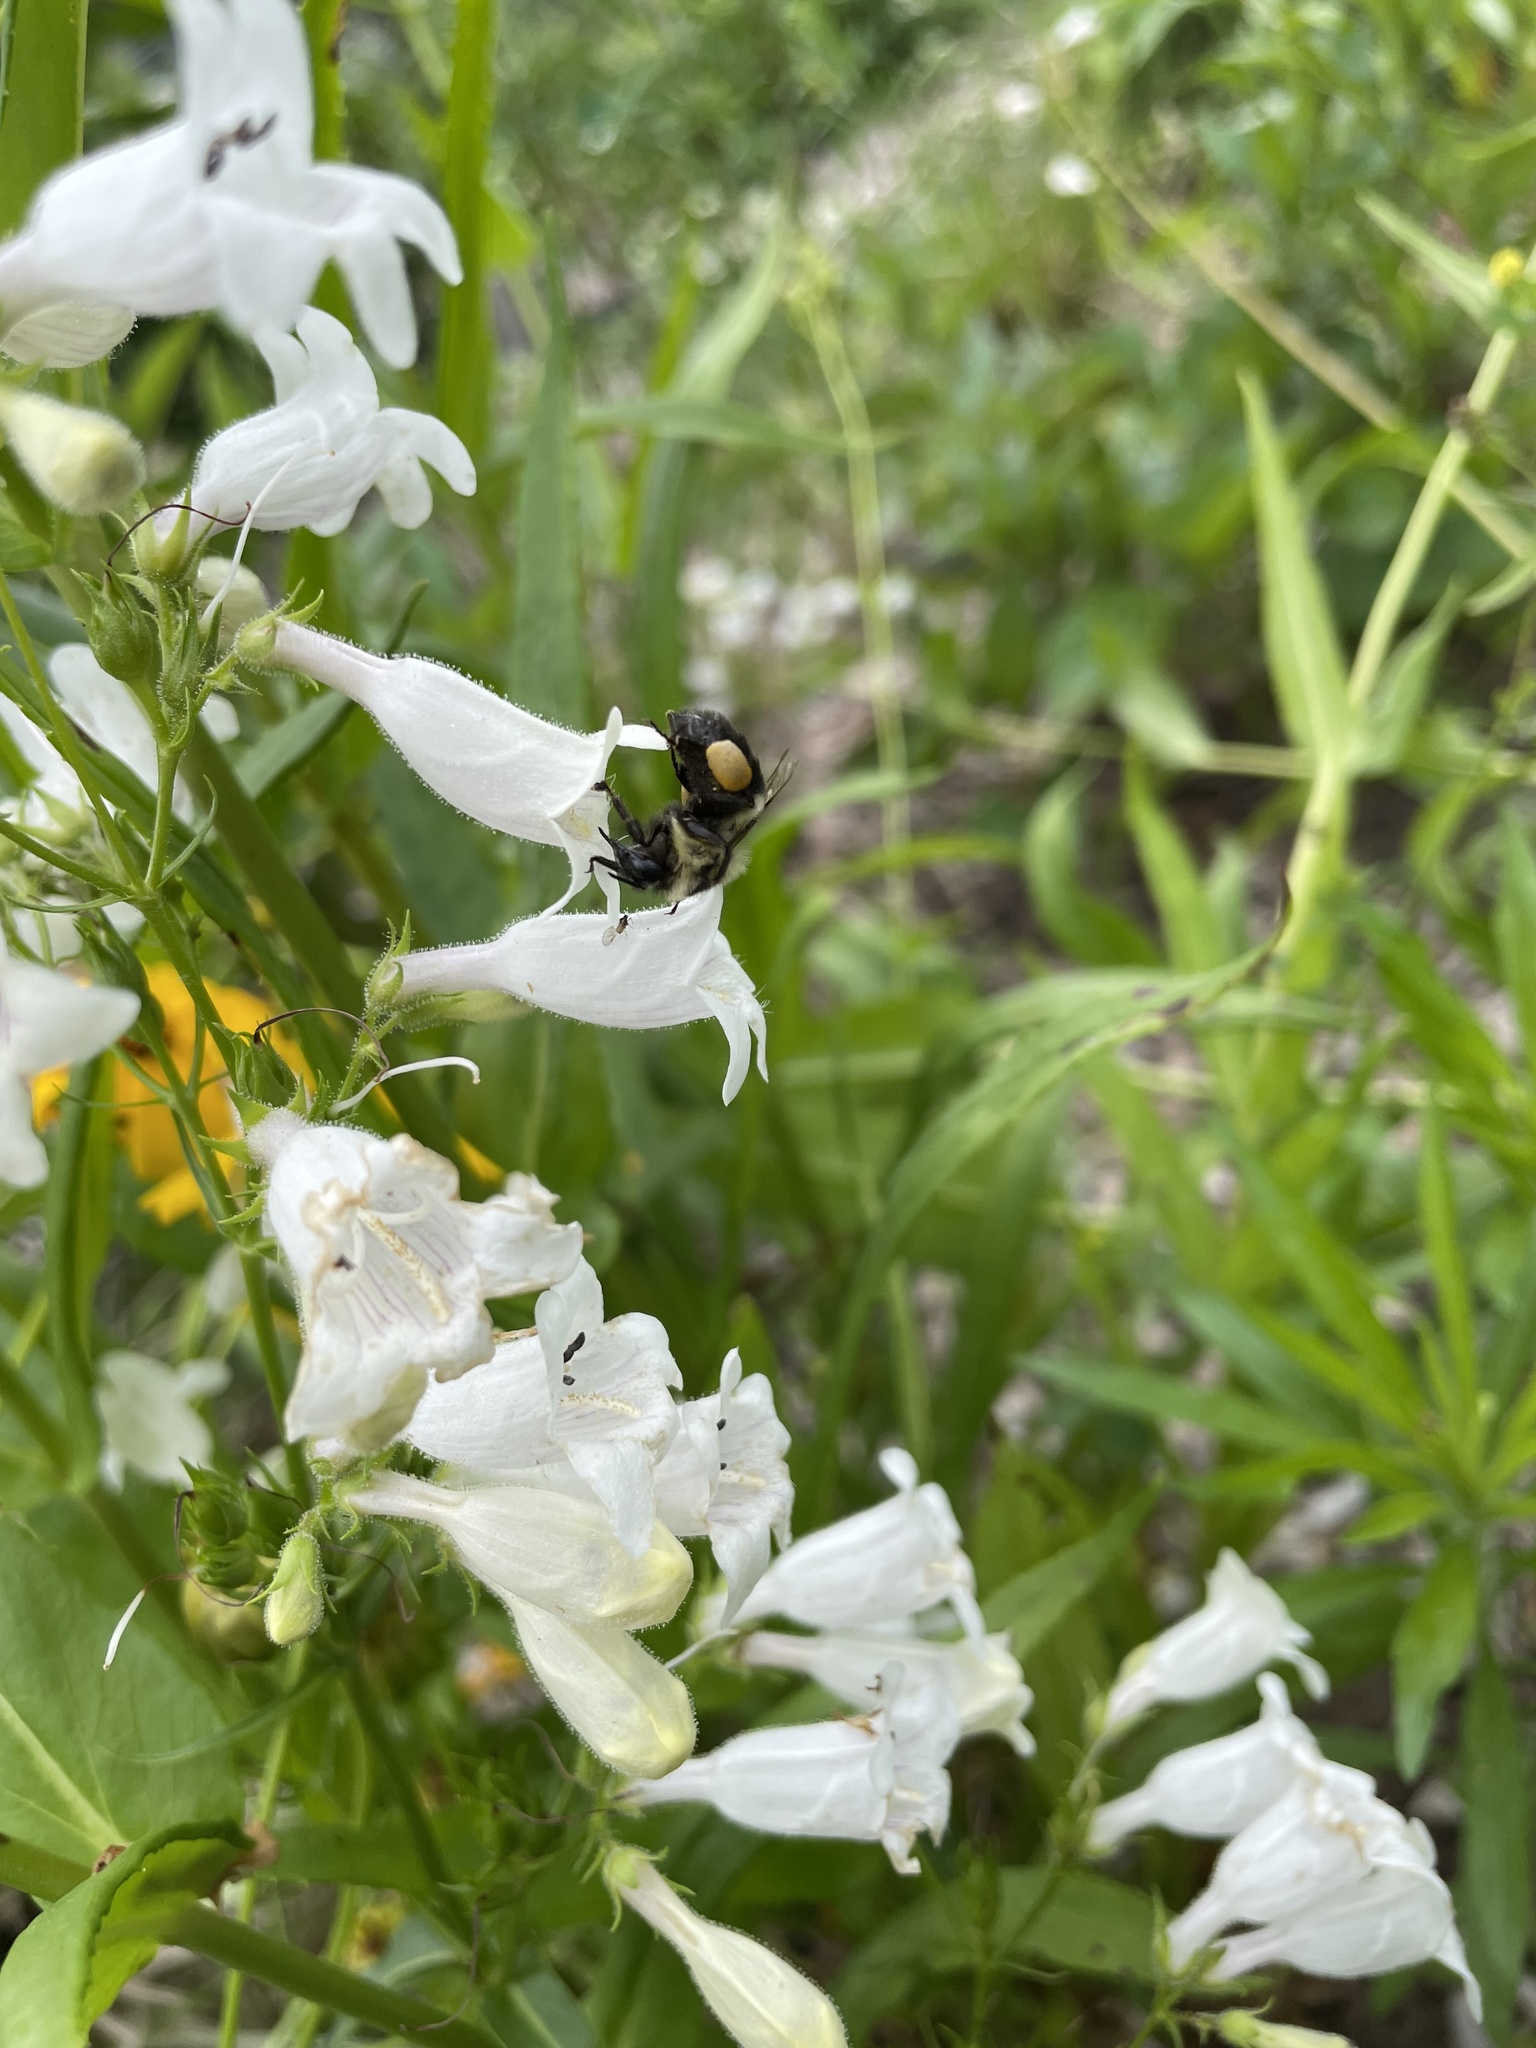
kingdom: Animalia
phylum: Arthropoda
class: Insecta
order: Hymenoptera
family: Apidae
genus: Bombus
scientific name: Bombus impatiens
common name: Common eastern bumble bee
